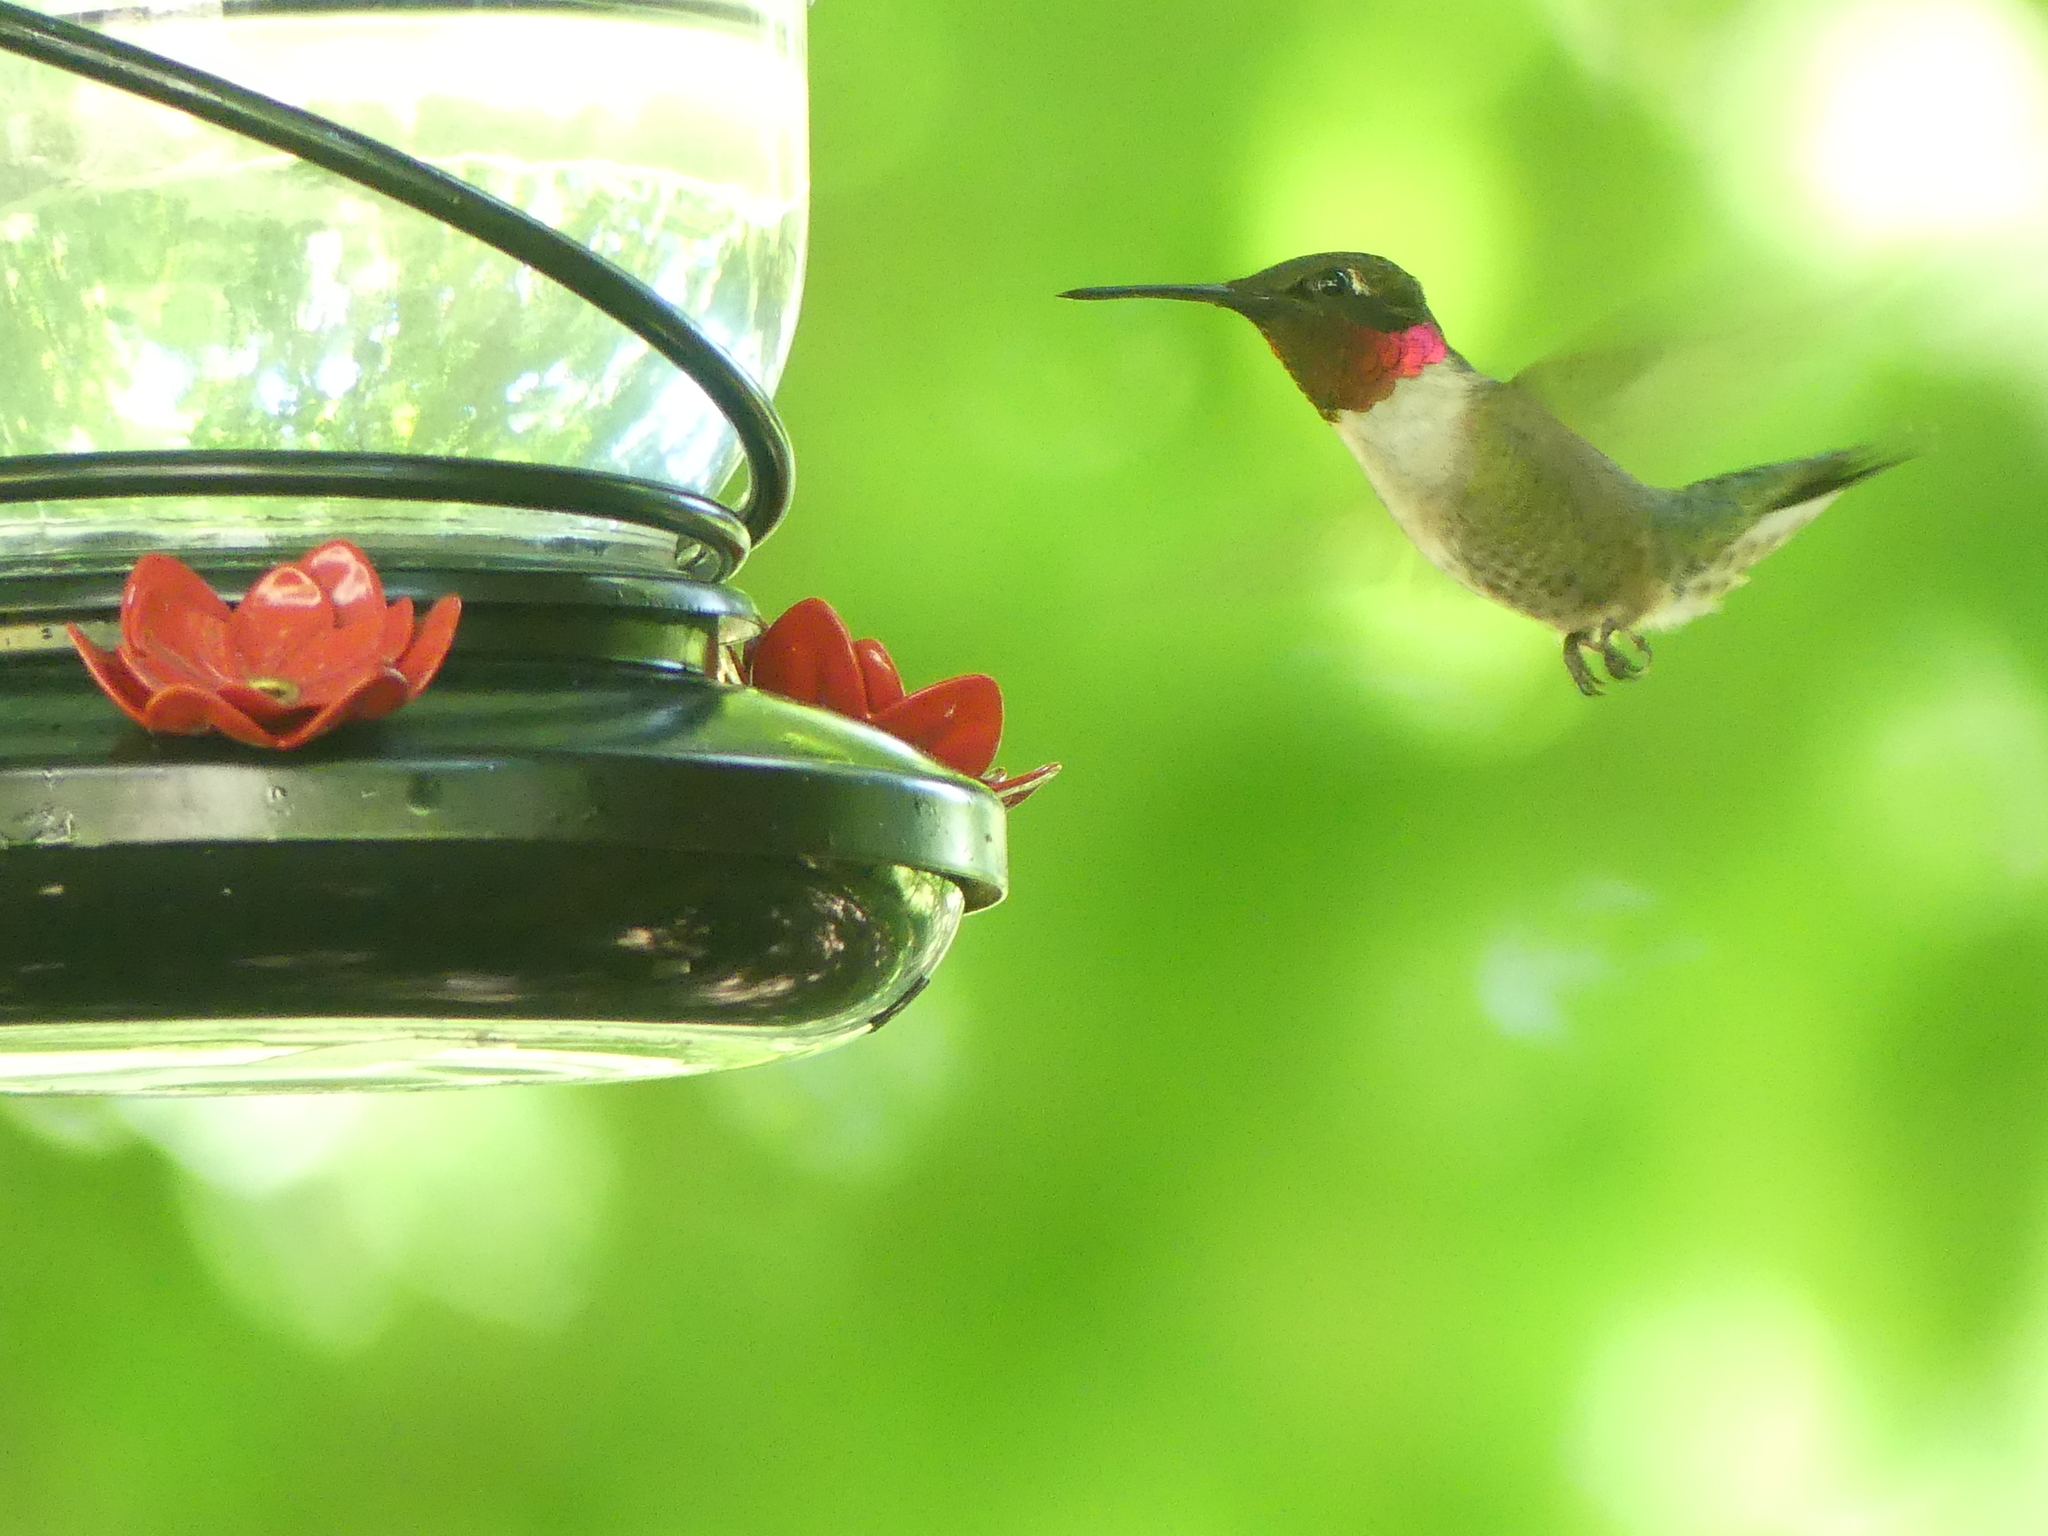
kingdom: Animalia
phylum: Chordata
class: Aves
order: Apodiformes
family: Trochilidae
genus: Archilochus
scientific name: Archilochus colubris
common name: Ruby-throated hummingbird
